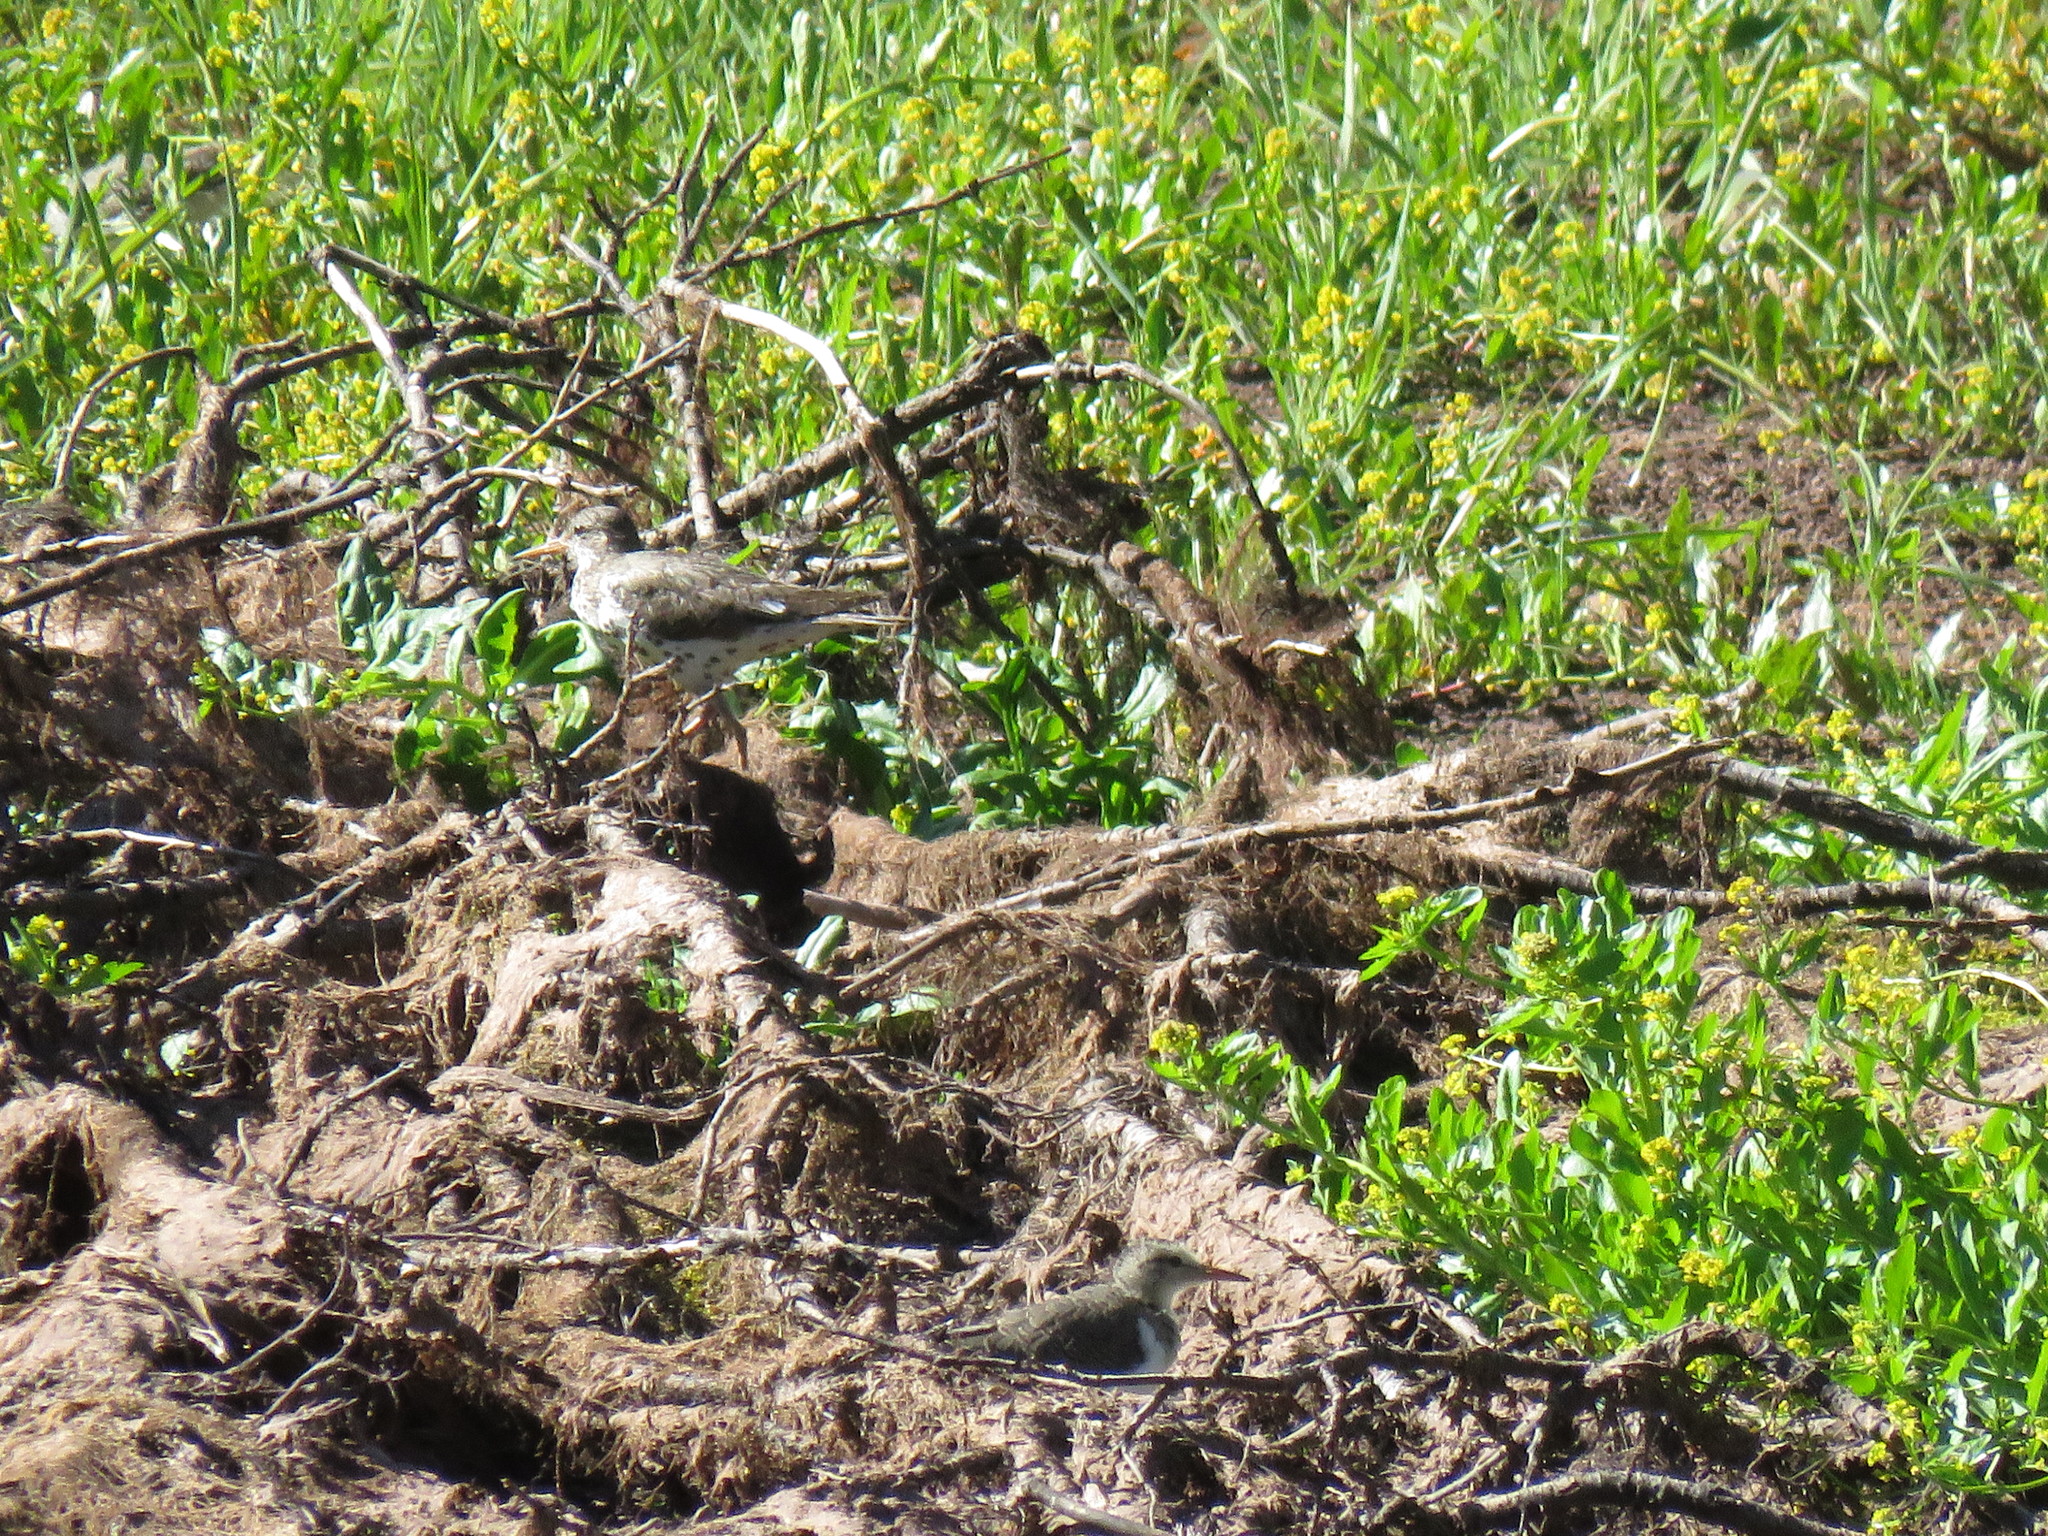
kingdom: Animalia
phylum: Chordata
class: Aves
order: Charadriiformes
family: Scolopacidae
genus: Actitis
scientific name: Actitis macularius
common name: Spotted sandpiper
